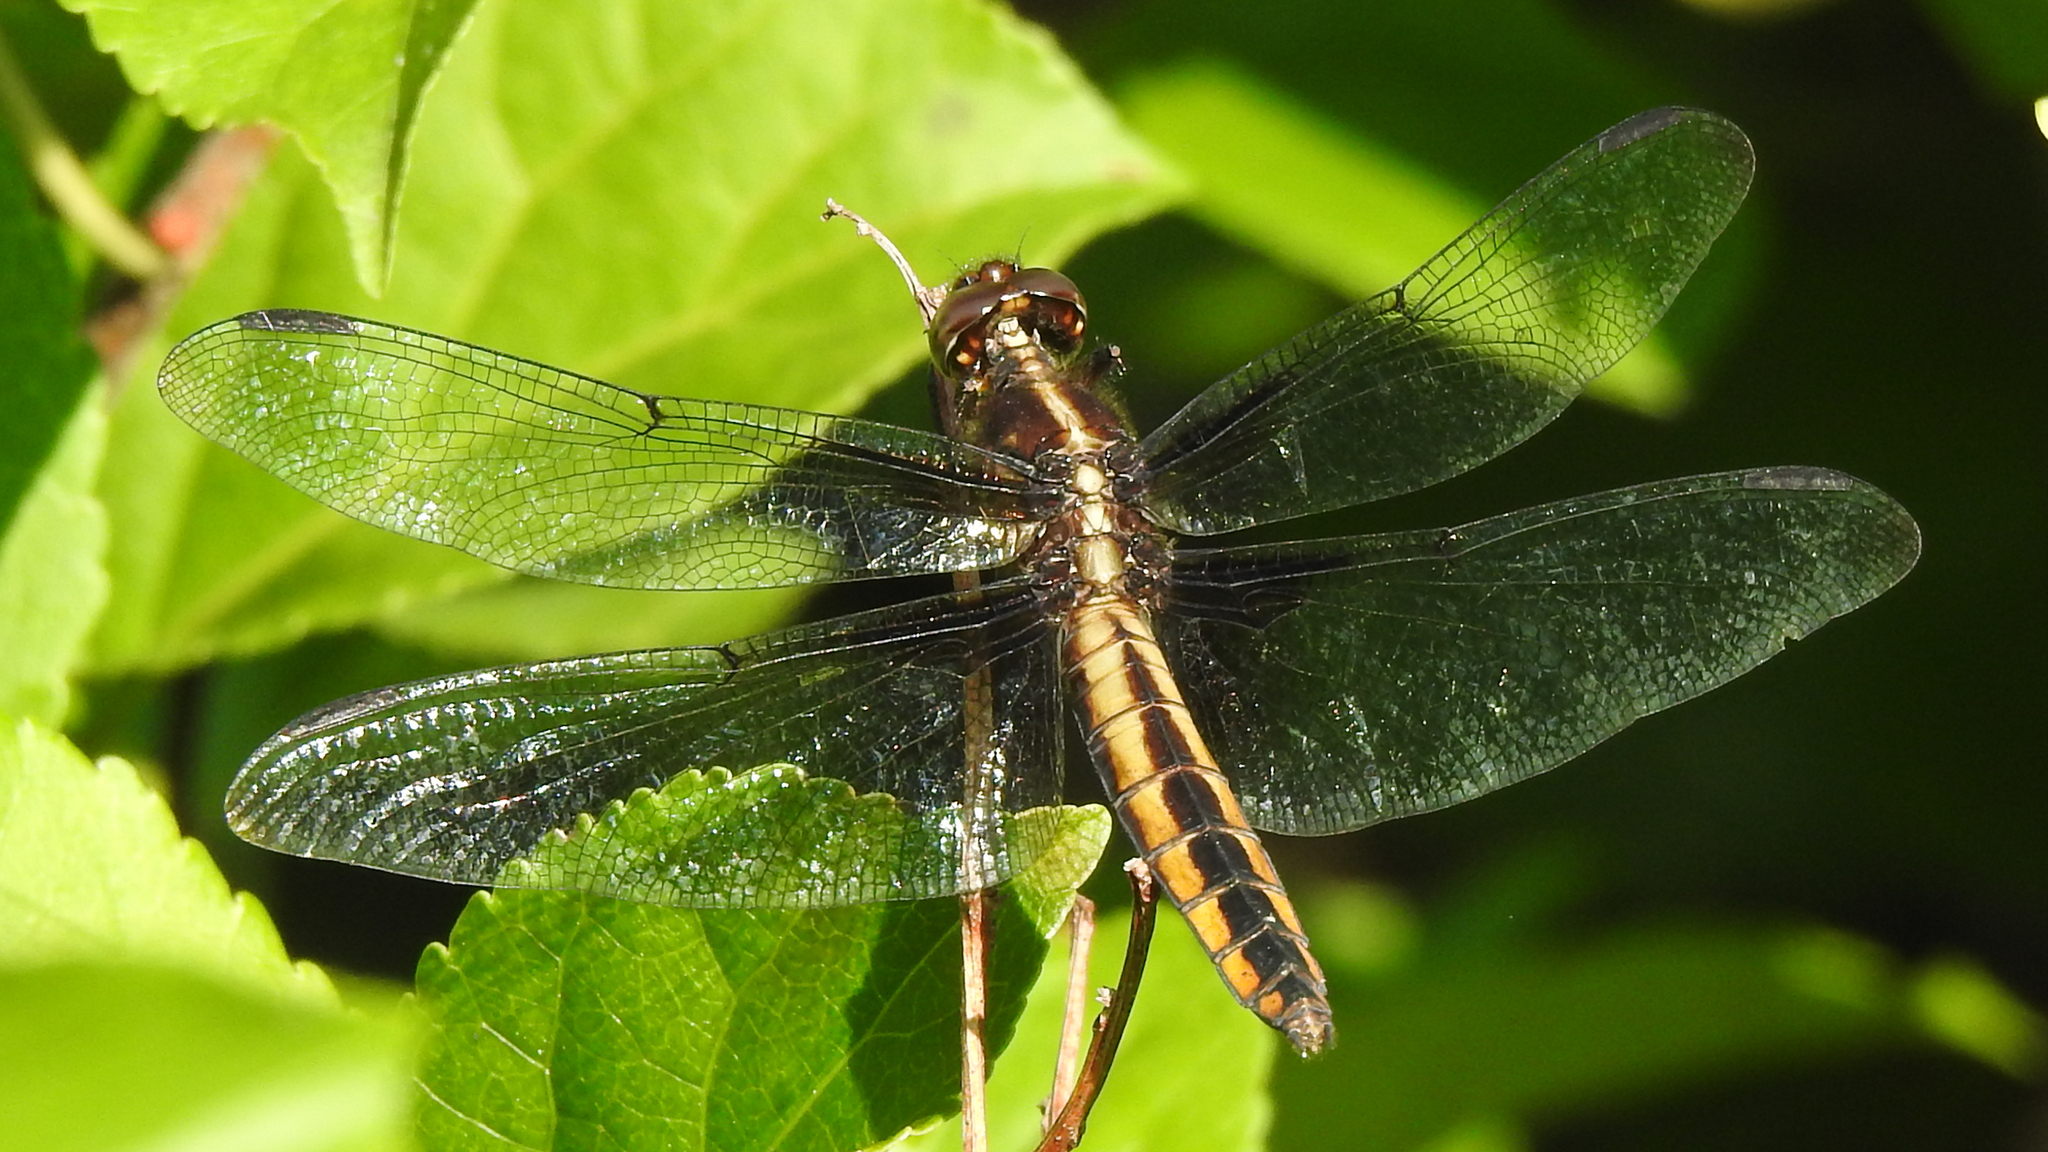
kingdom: Animalia
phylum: Arthropoda
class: Insecta
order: Odonata
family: Libellulidae
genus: Libellula
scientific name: Libellula luctuosa
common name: Widow skimmer
